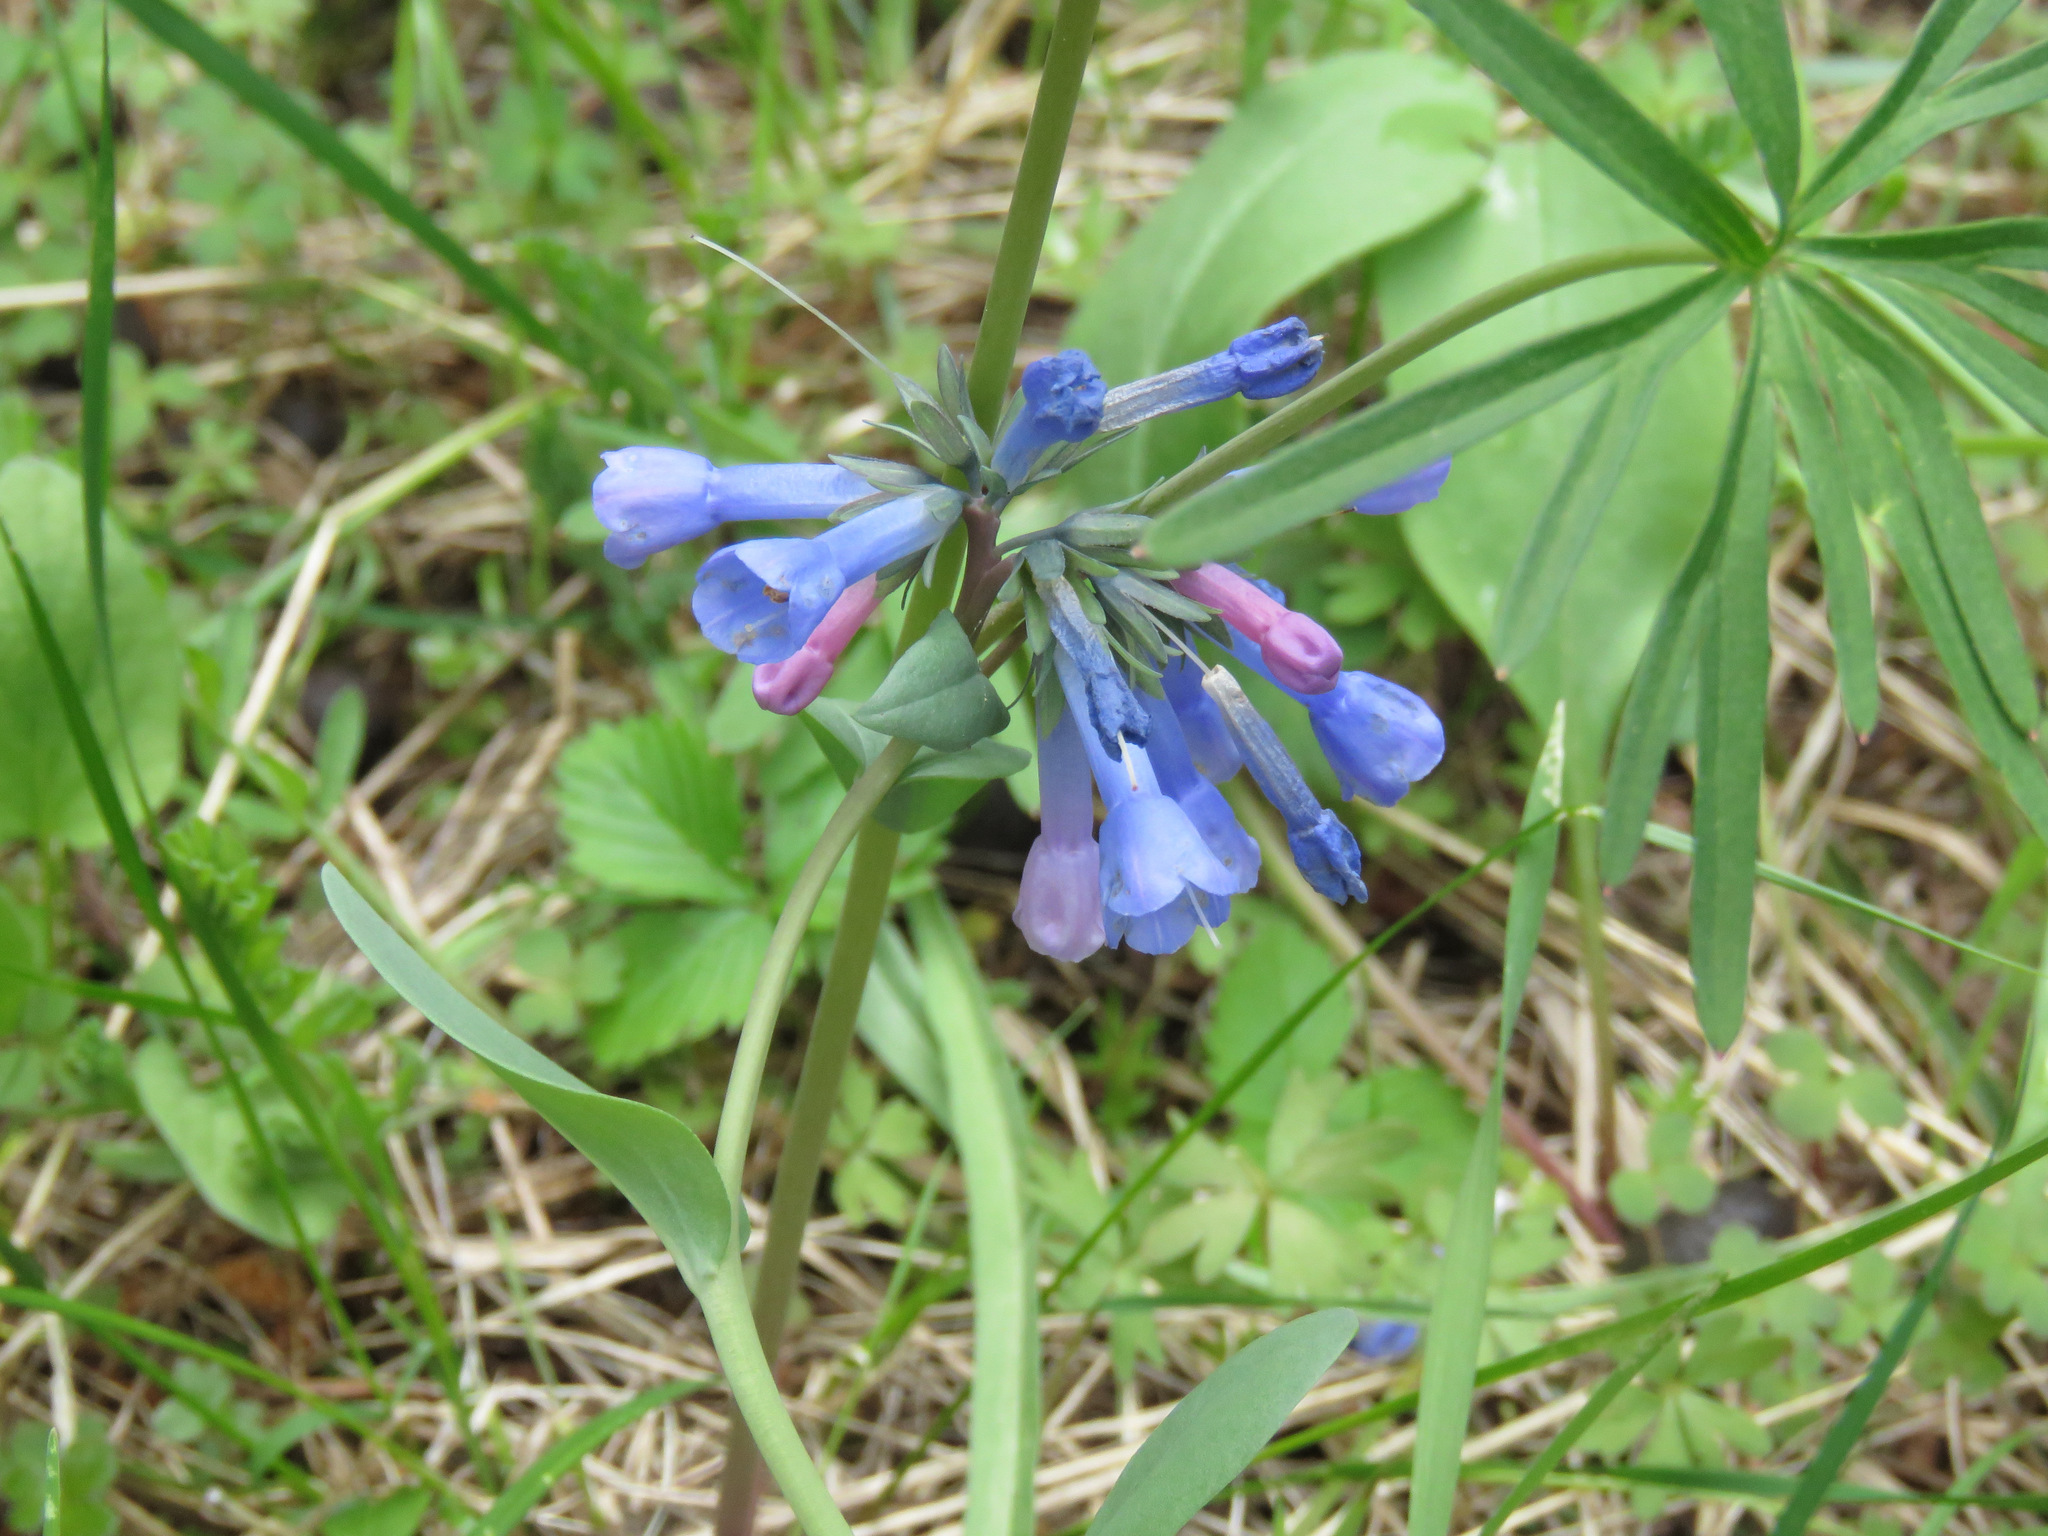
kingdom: Plantae
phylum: Tracheophyta
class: Magnoliopsida
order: Boraginales
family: Boraginaceae
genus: Mertensia
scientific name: Mertensia longiflora
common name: Large-flowered bluebells
